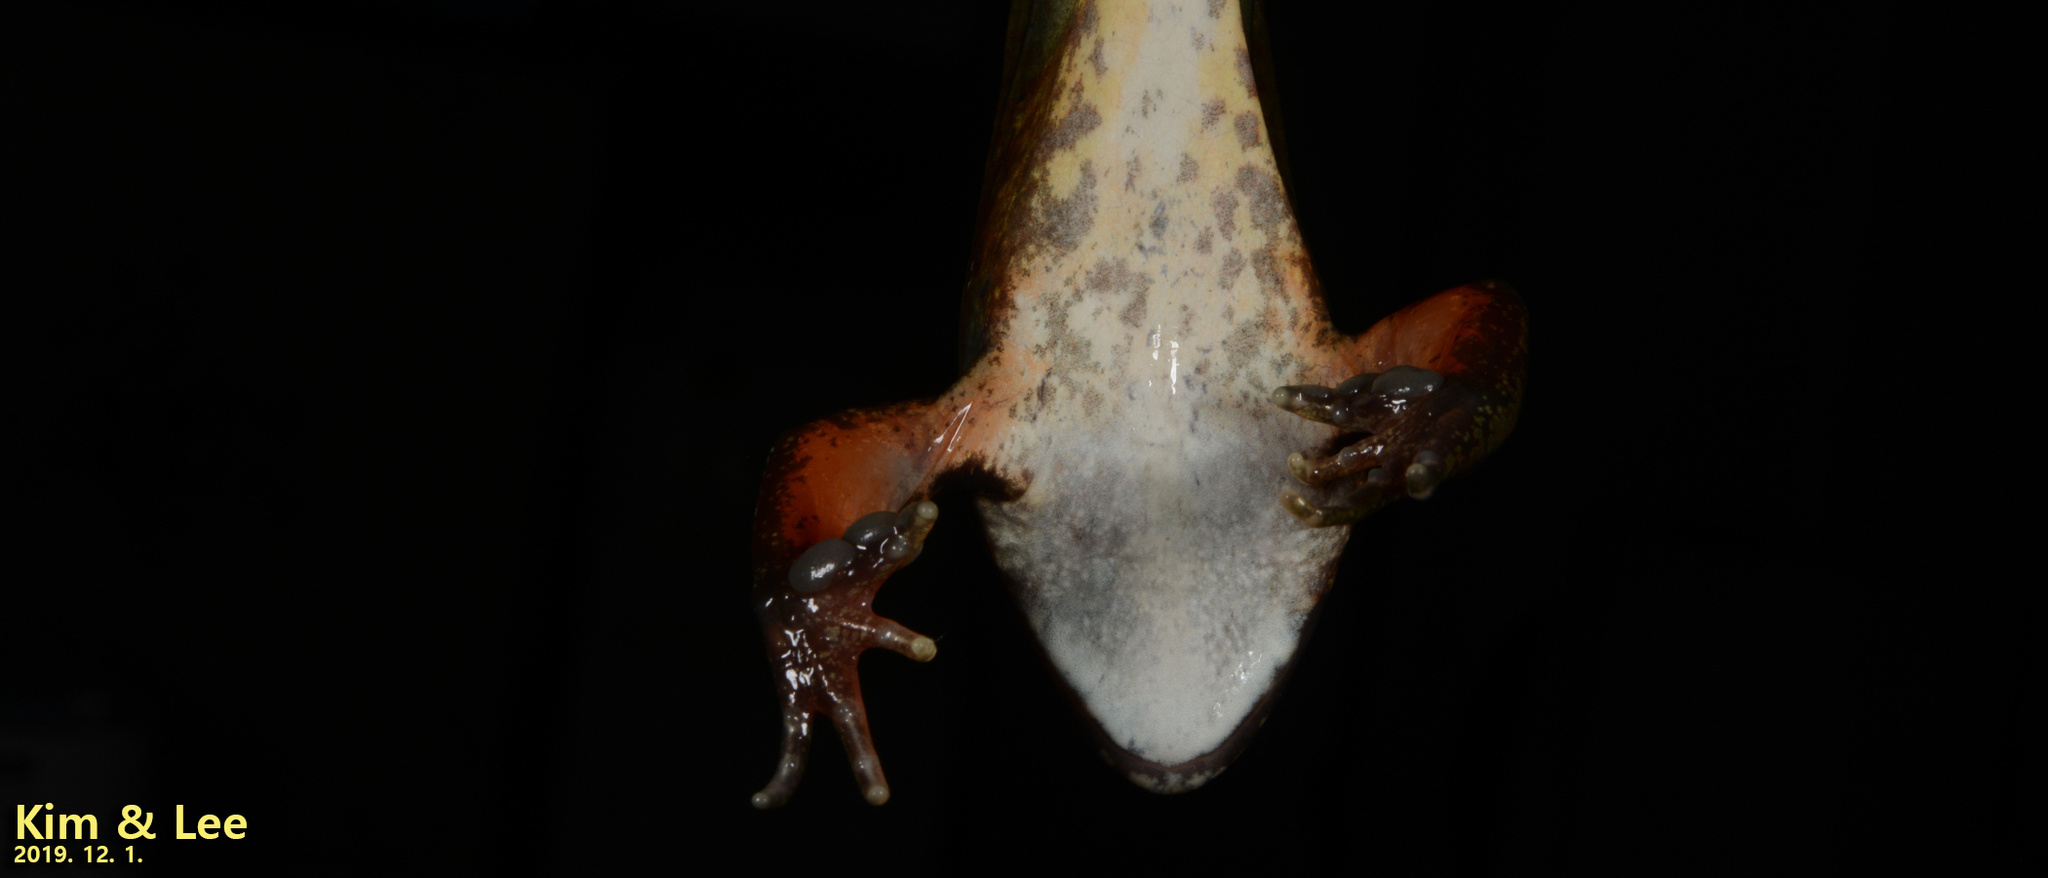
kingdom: Animalia
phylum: Chordata
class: Amphibia
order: Anura
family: Ranidae
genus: Rana
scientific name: Rana dybowskii
